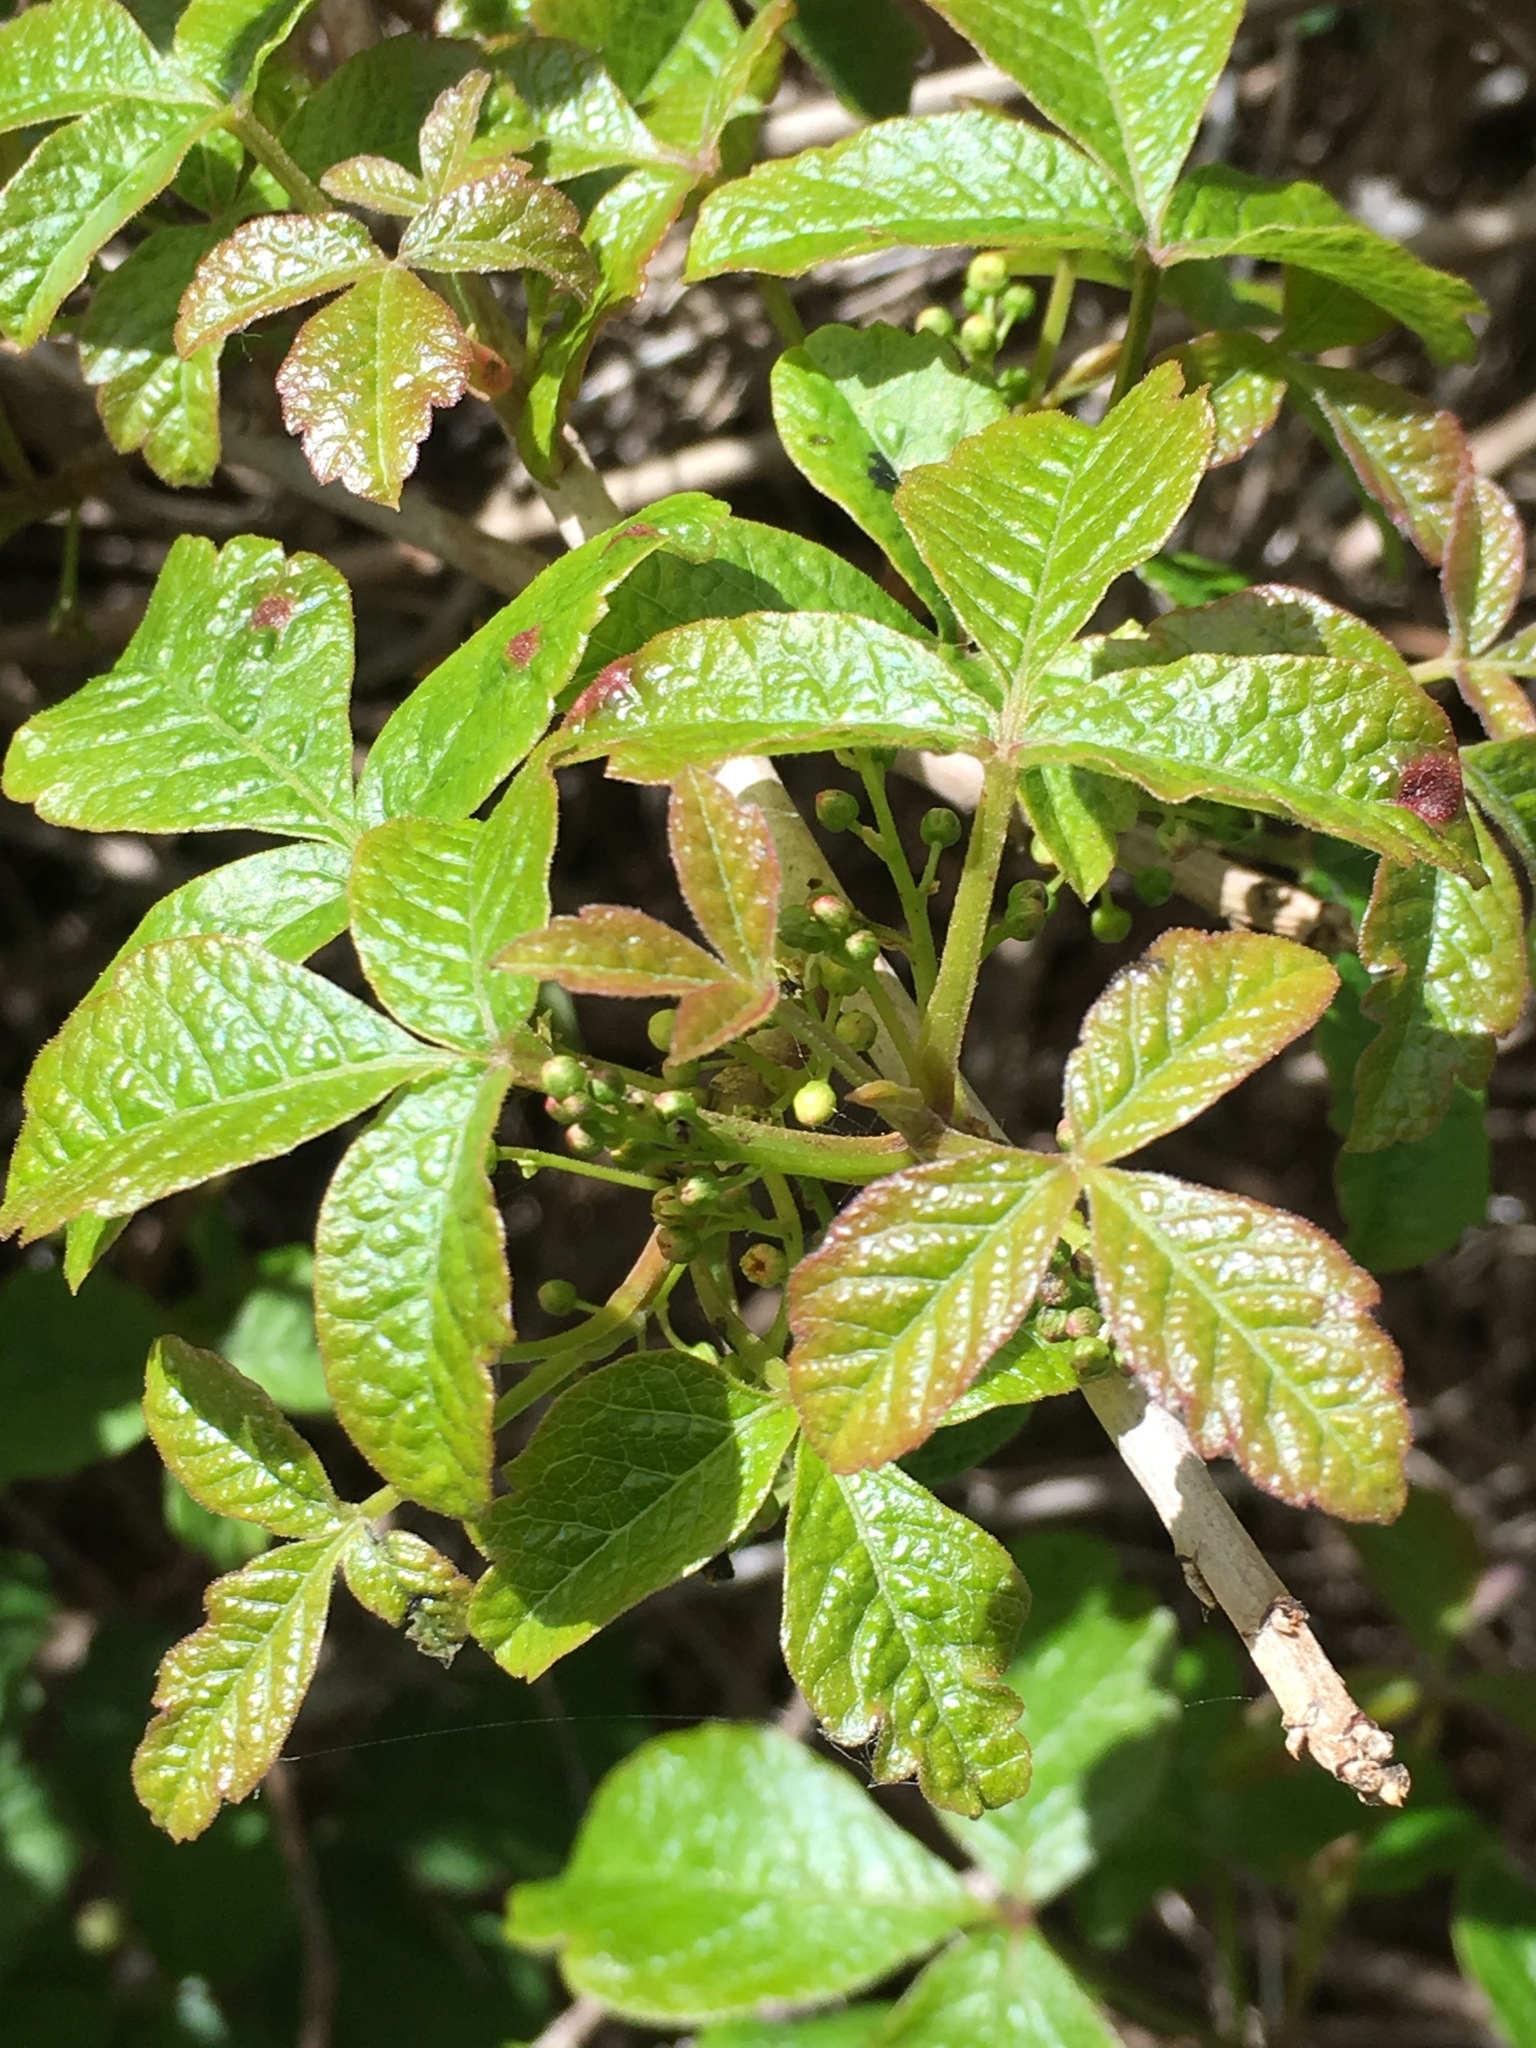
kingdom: Plantae
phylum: Tracheophyta
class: Magnoliopsida
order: Sapindales
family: Anacardiaceae
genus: Toxicodendron
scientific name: Toxicodendron diversilobum
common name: Pacific poison-oak
